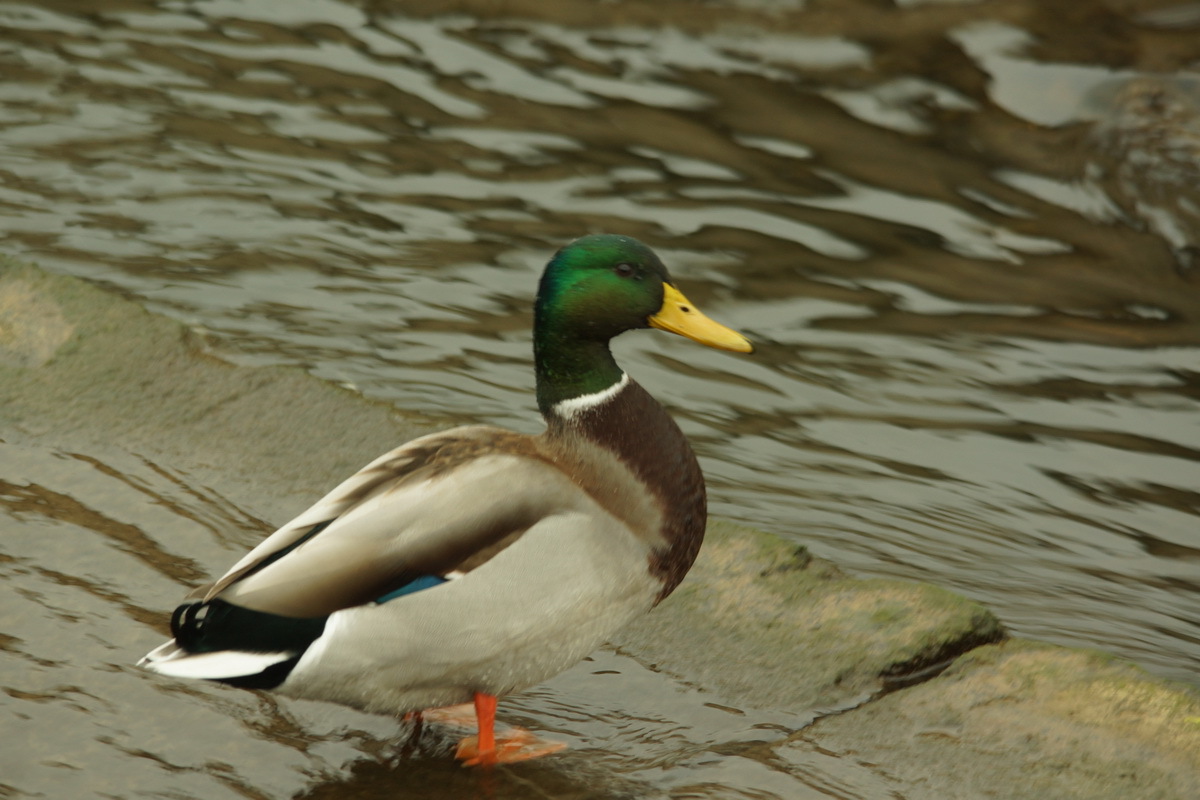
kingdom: Animalia
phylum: Chordata
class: Aves
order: Anseriformes
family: Anatidae
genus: Anas
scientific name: Anas platyrhynchos
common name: Mallard
